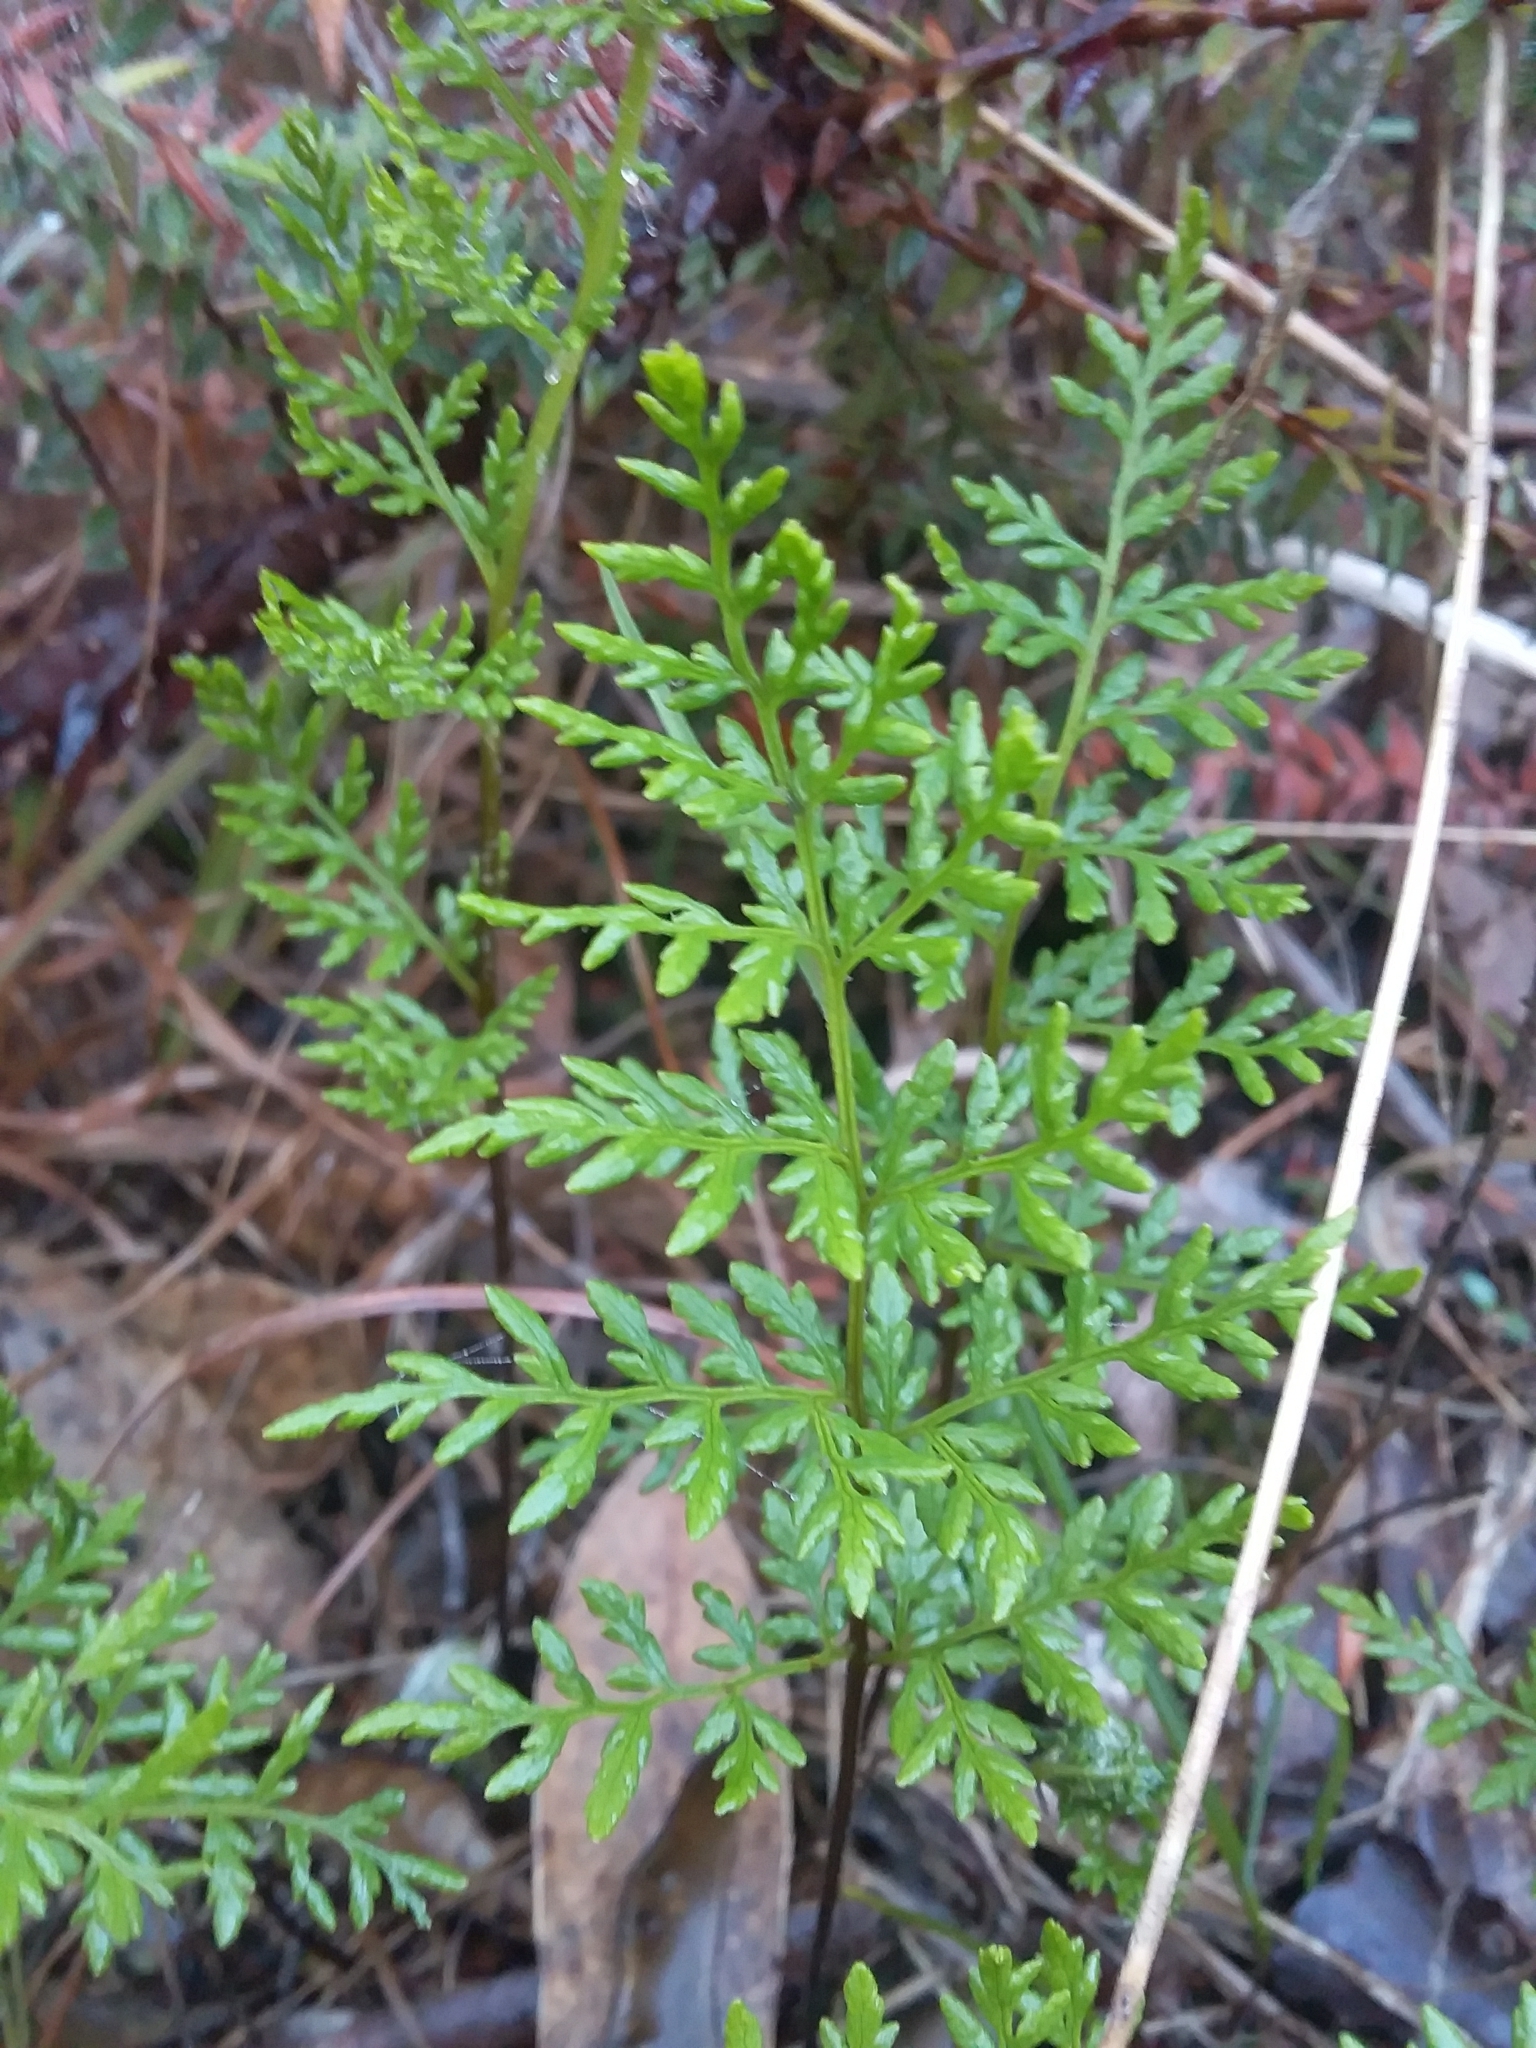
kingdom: Plantae
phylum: Tracheophyta
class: Polypodiopsida
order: Polypodiales
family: Pteridaceae
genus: Cheilanthes
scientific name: Cheilanthes austrotenuifolia
